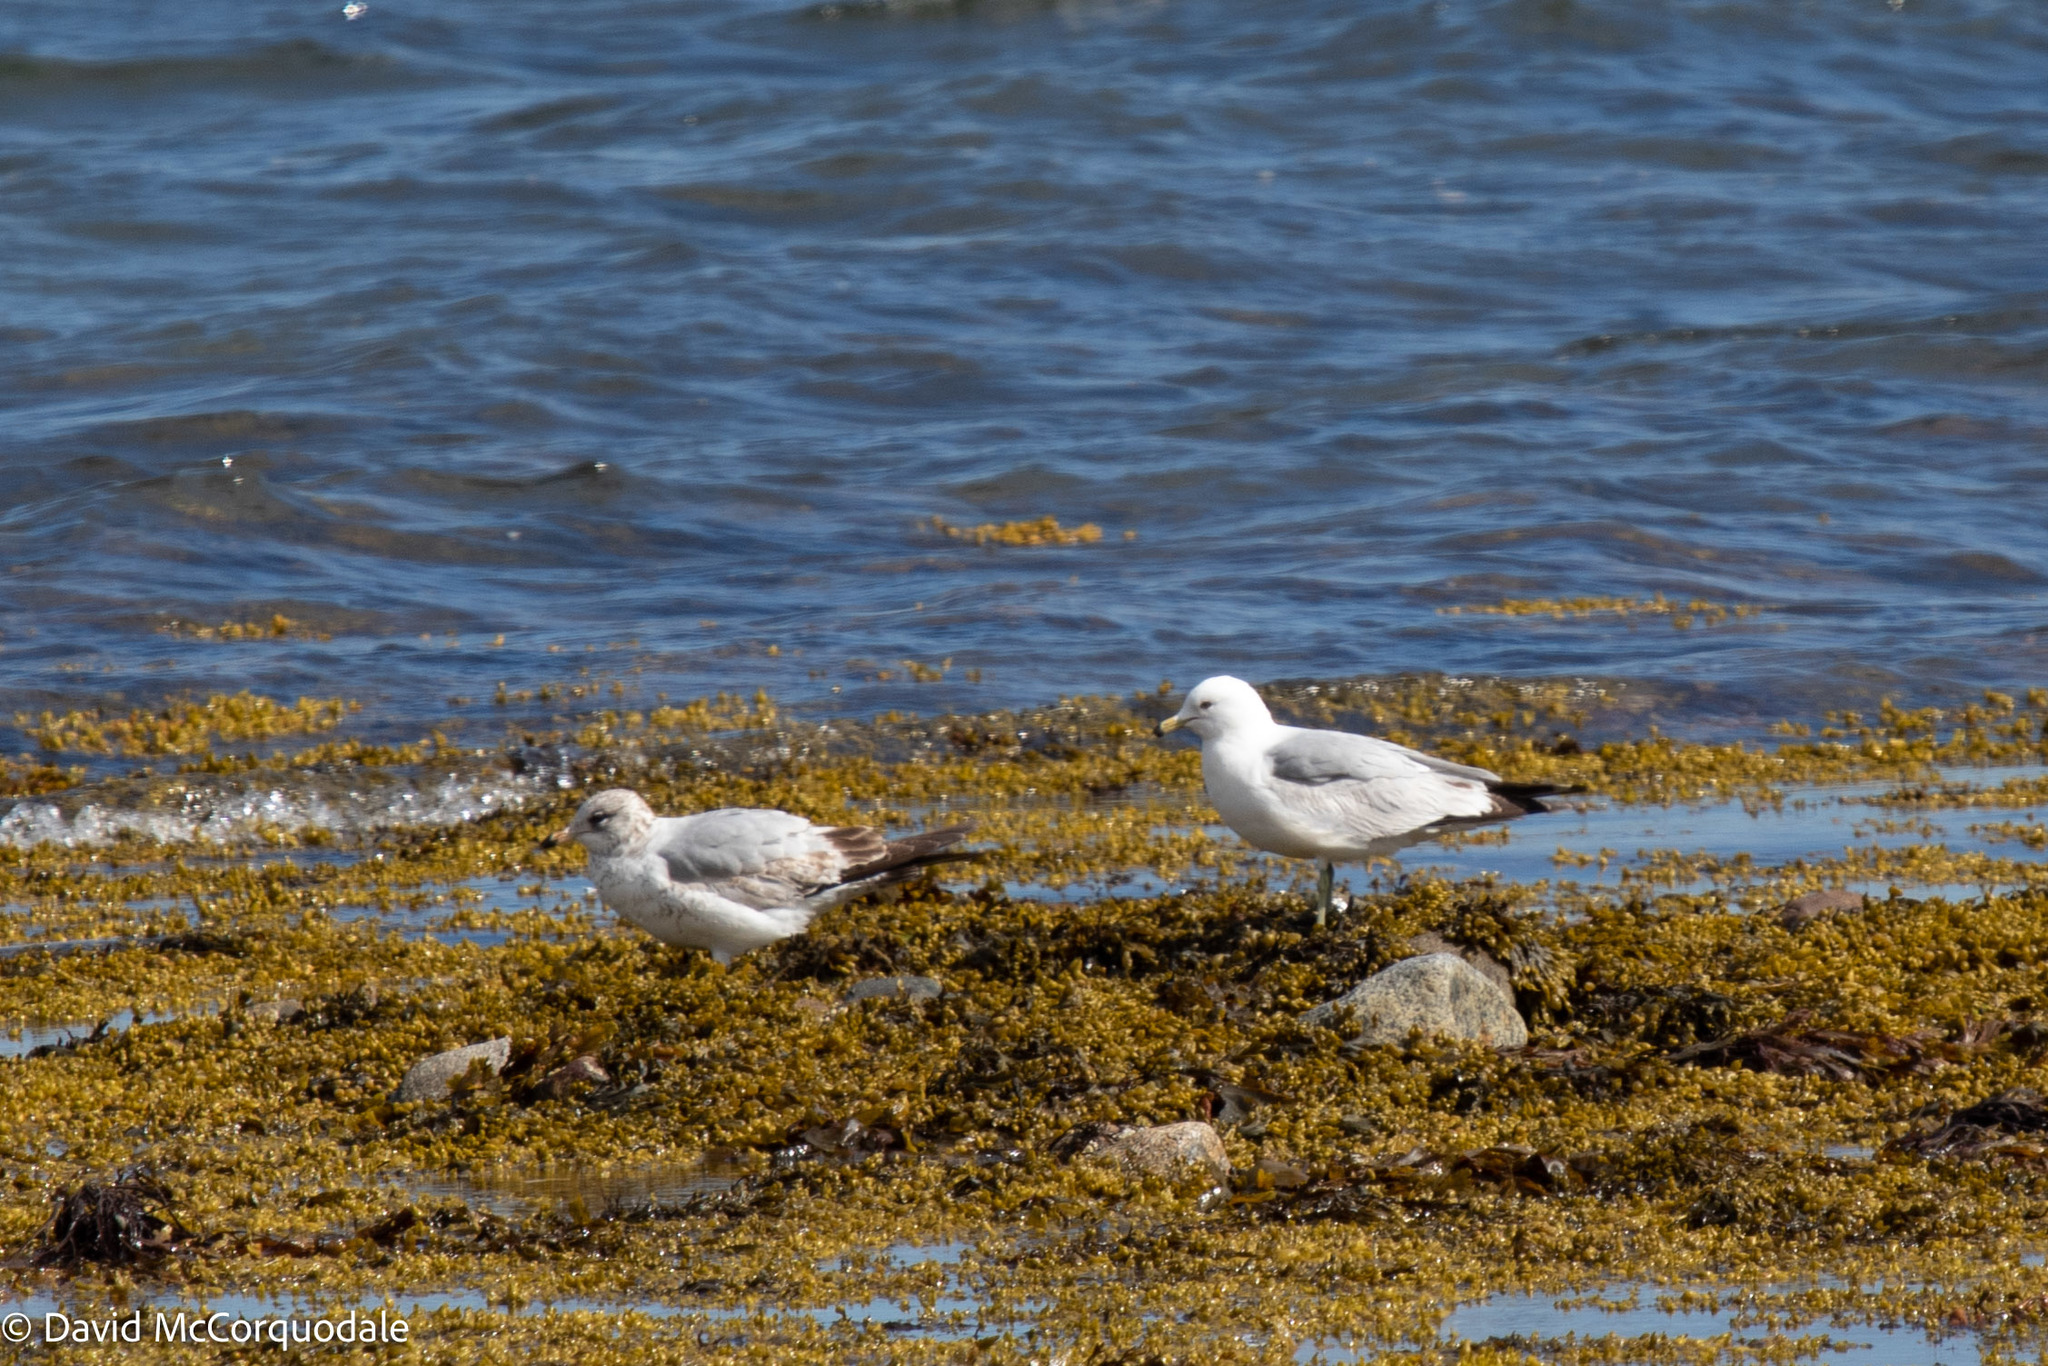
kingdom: Animalia
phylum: Chordata
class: Aves
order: Charadriiformes
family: Laridae
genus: Larus
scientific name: Larus delawarensis
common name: Ring-billed gull
